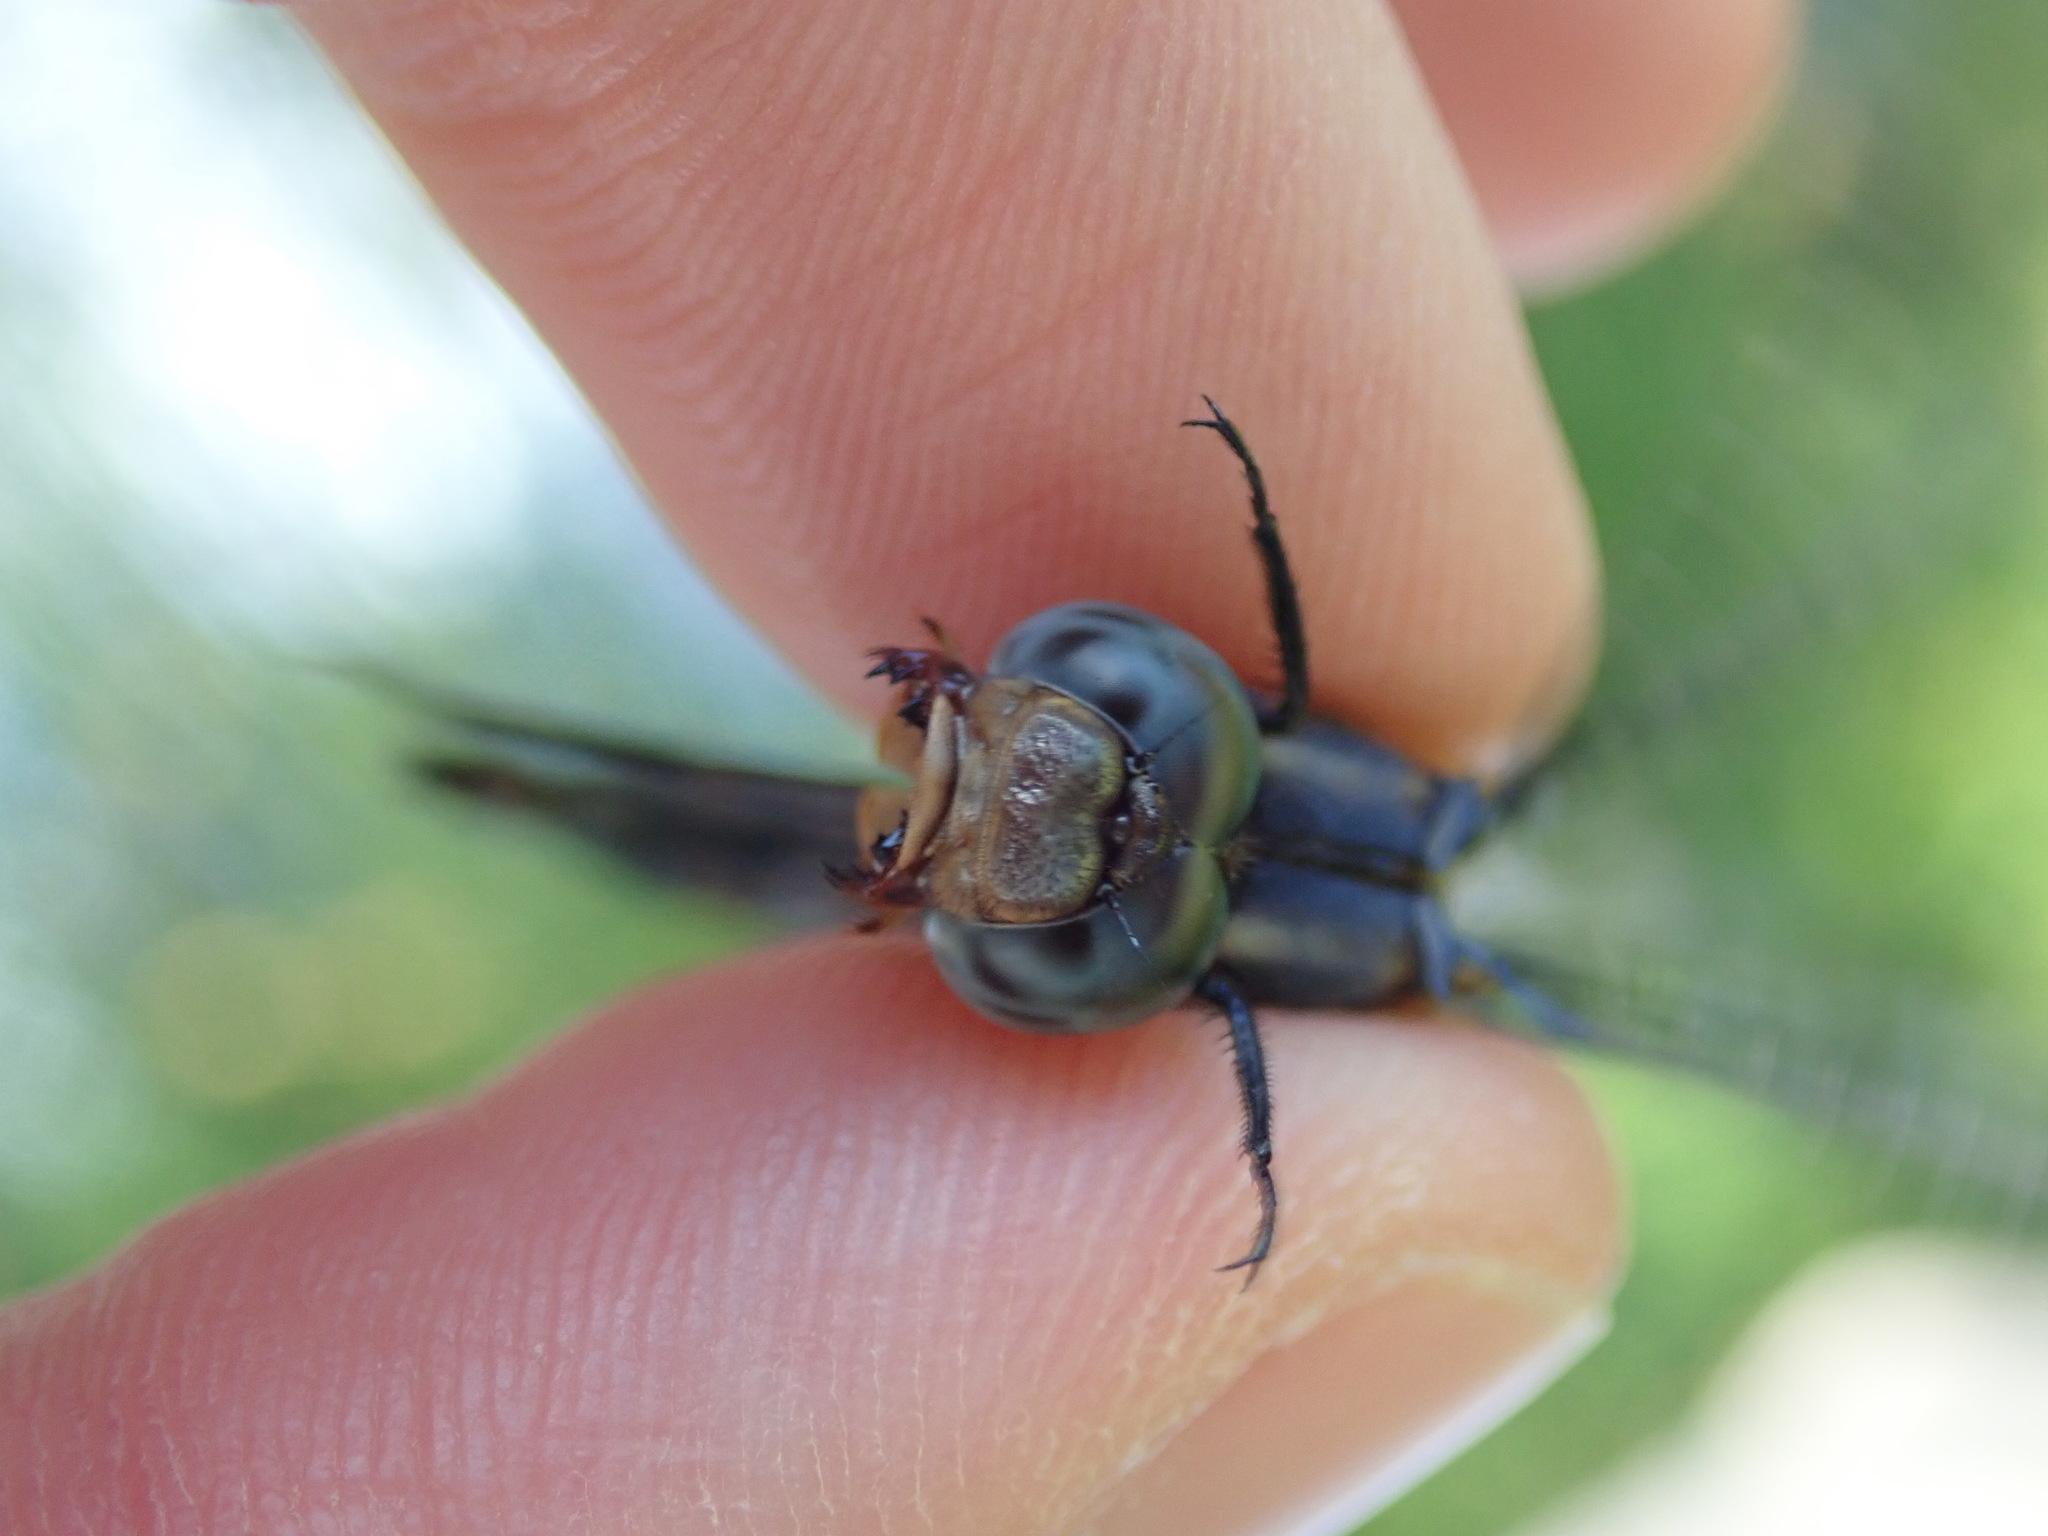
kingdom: Animalia
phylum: Arthropoda
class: Insecta
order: Odonata
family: Libellulidae
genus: Orthetrum
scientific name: Orthetrum coerulescens
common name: Keeled skimmer
